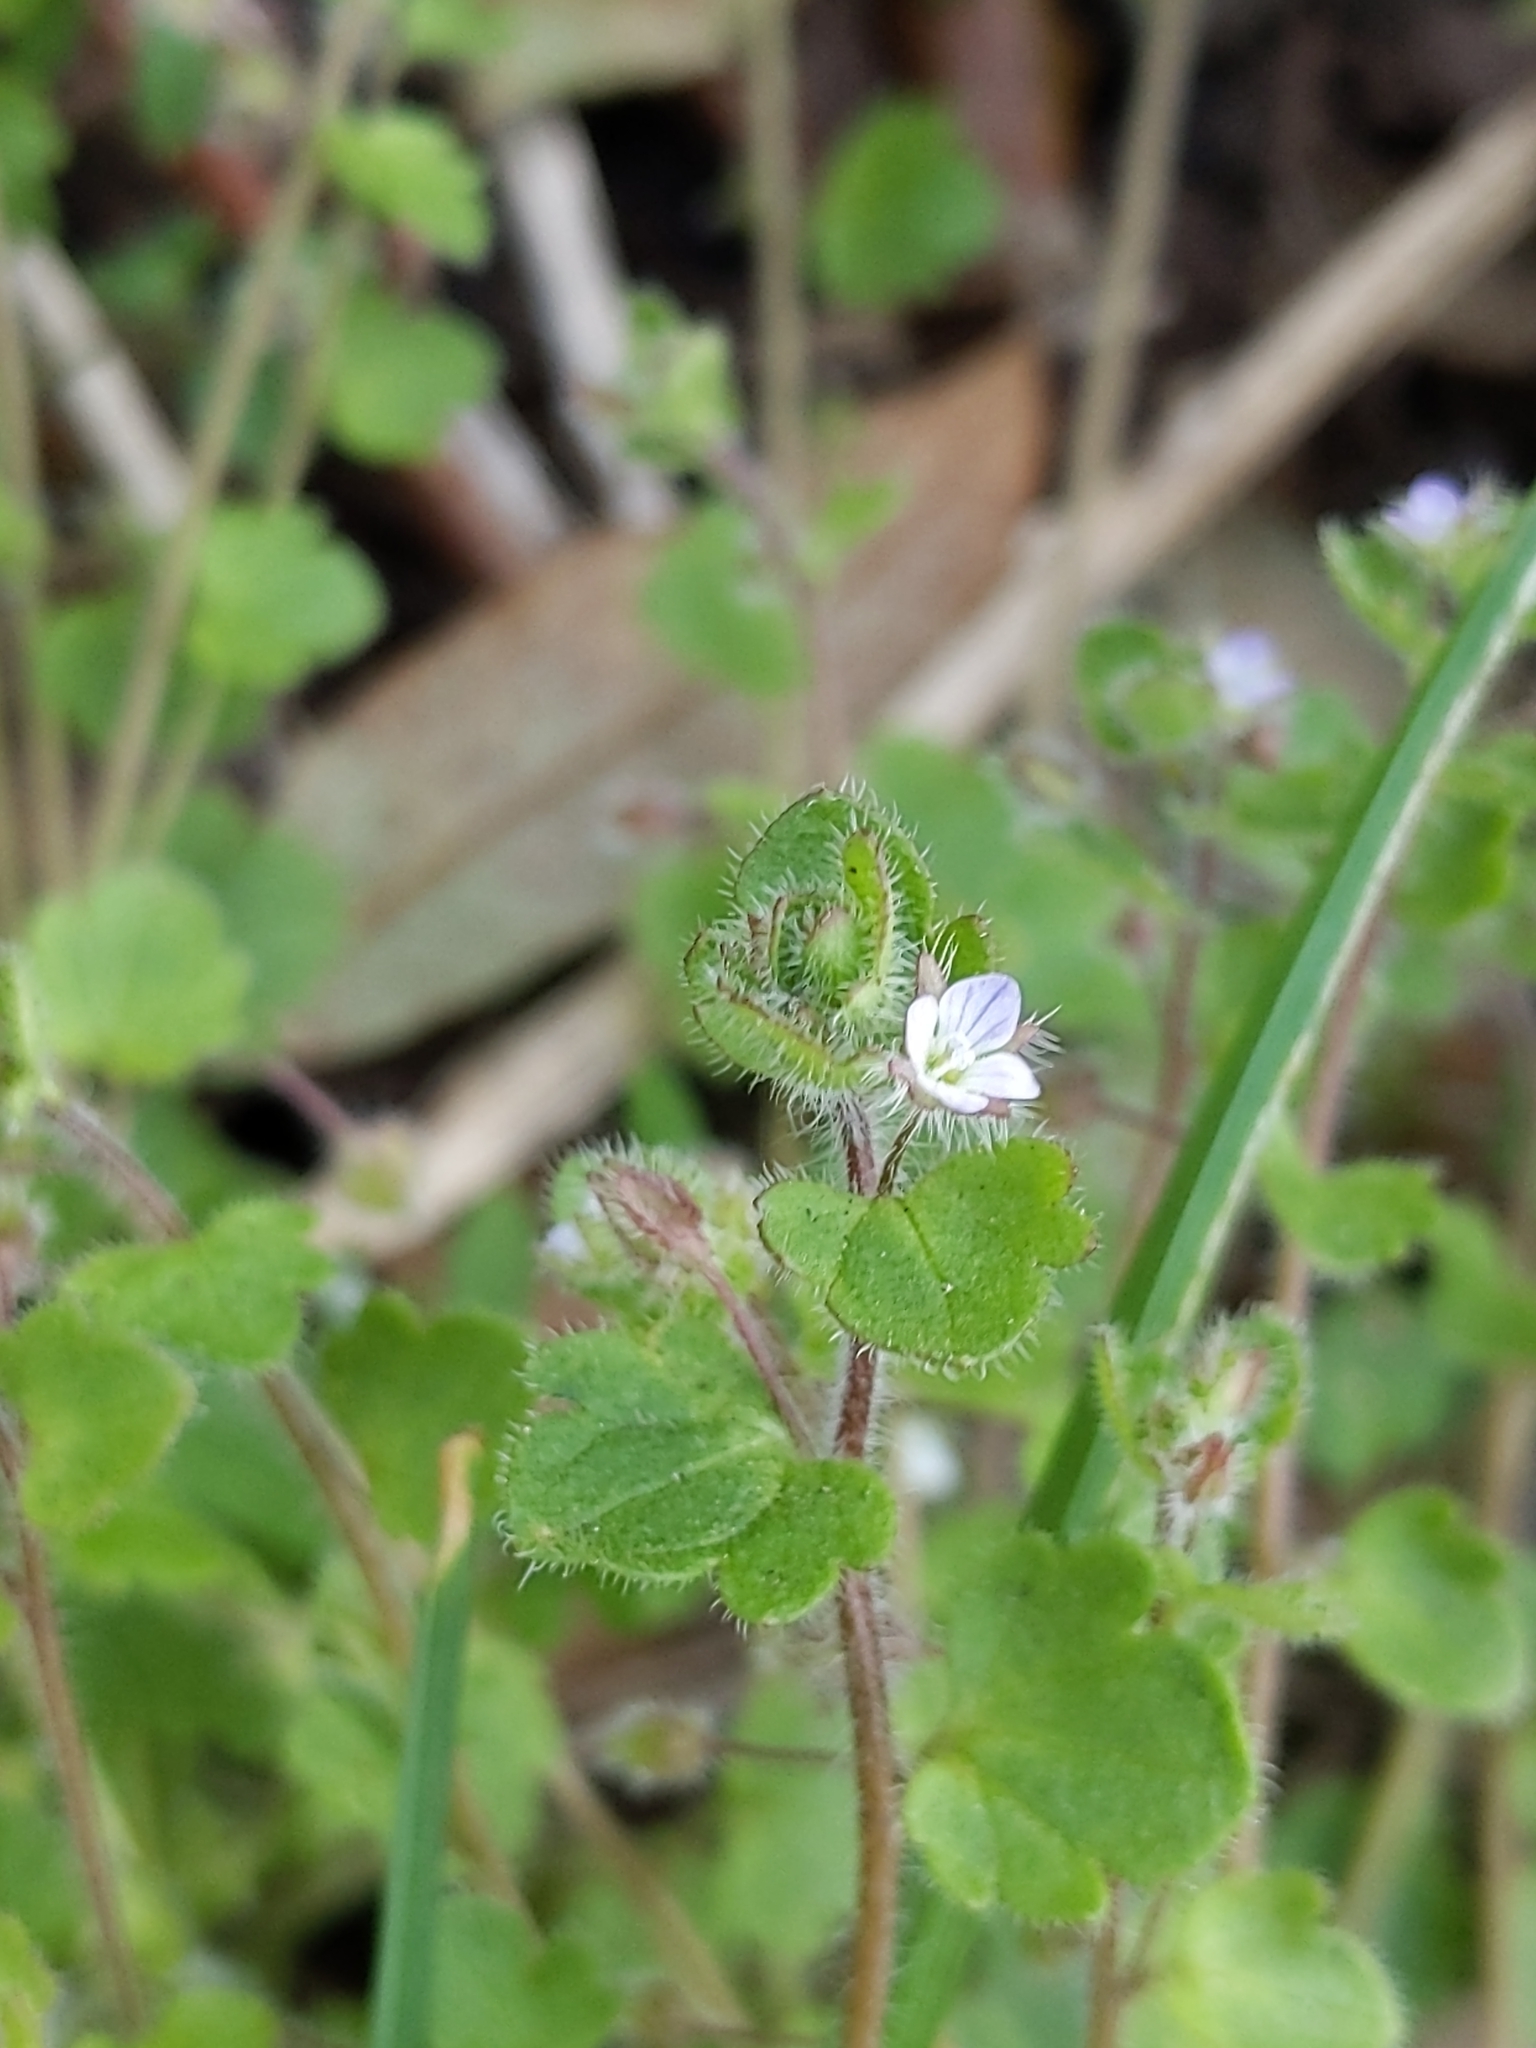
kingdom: Plantae
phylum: Tracheophyta
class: Magnoliopsida
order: Lamiales
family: Plantaginaceae
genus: Veronica
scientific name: Veronica sublobata
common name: False ivy-leaved speedwell
